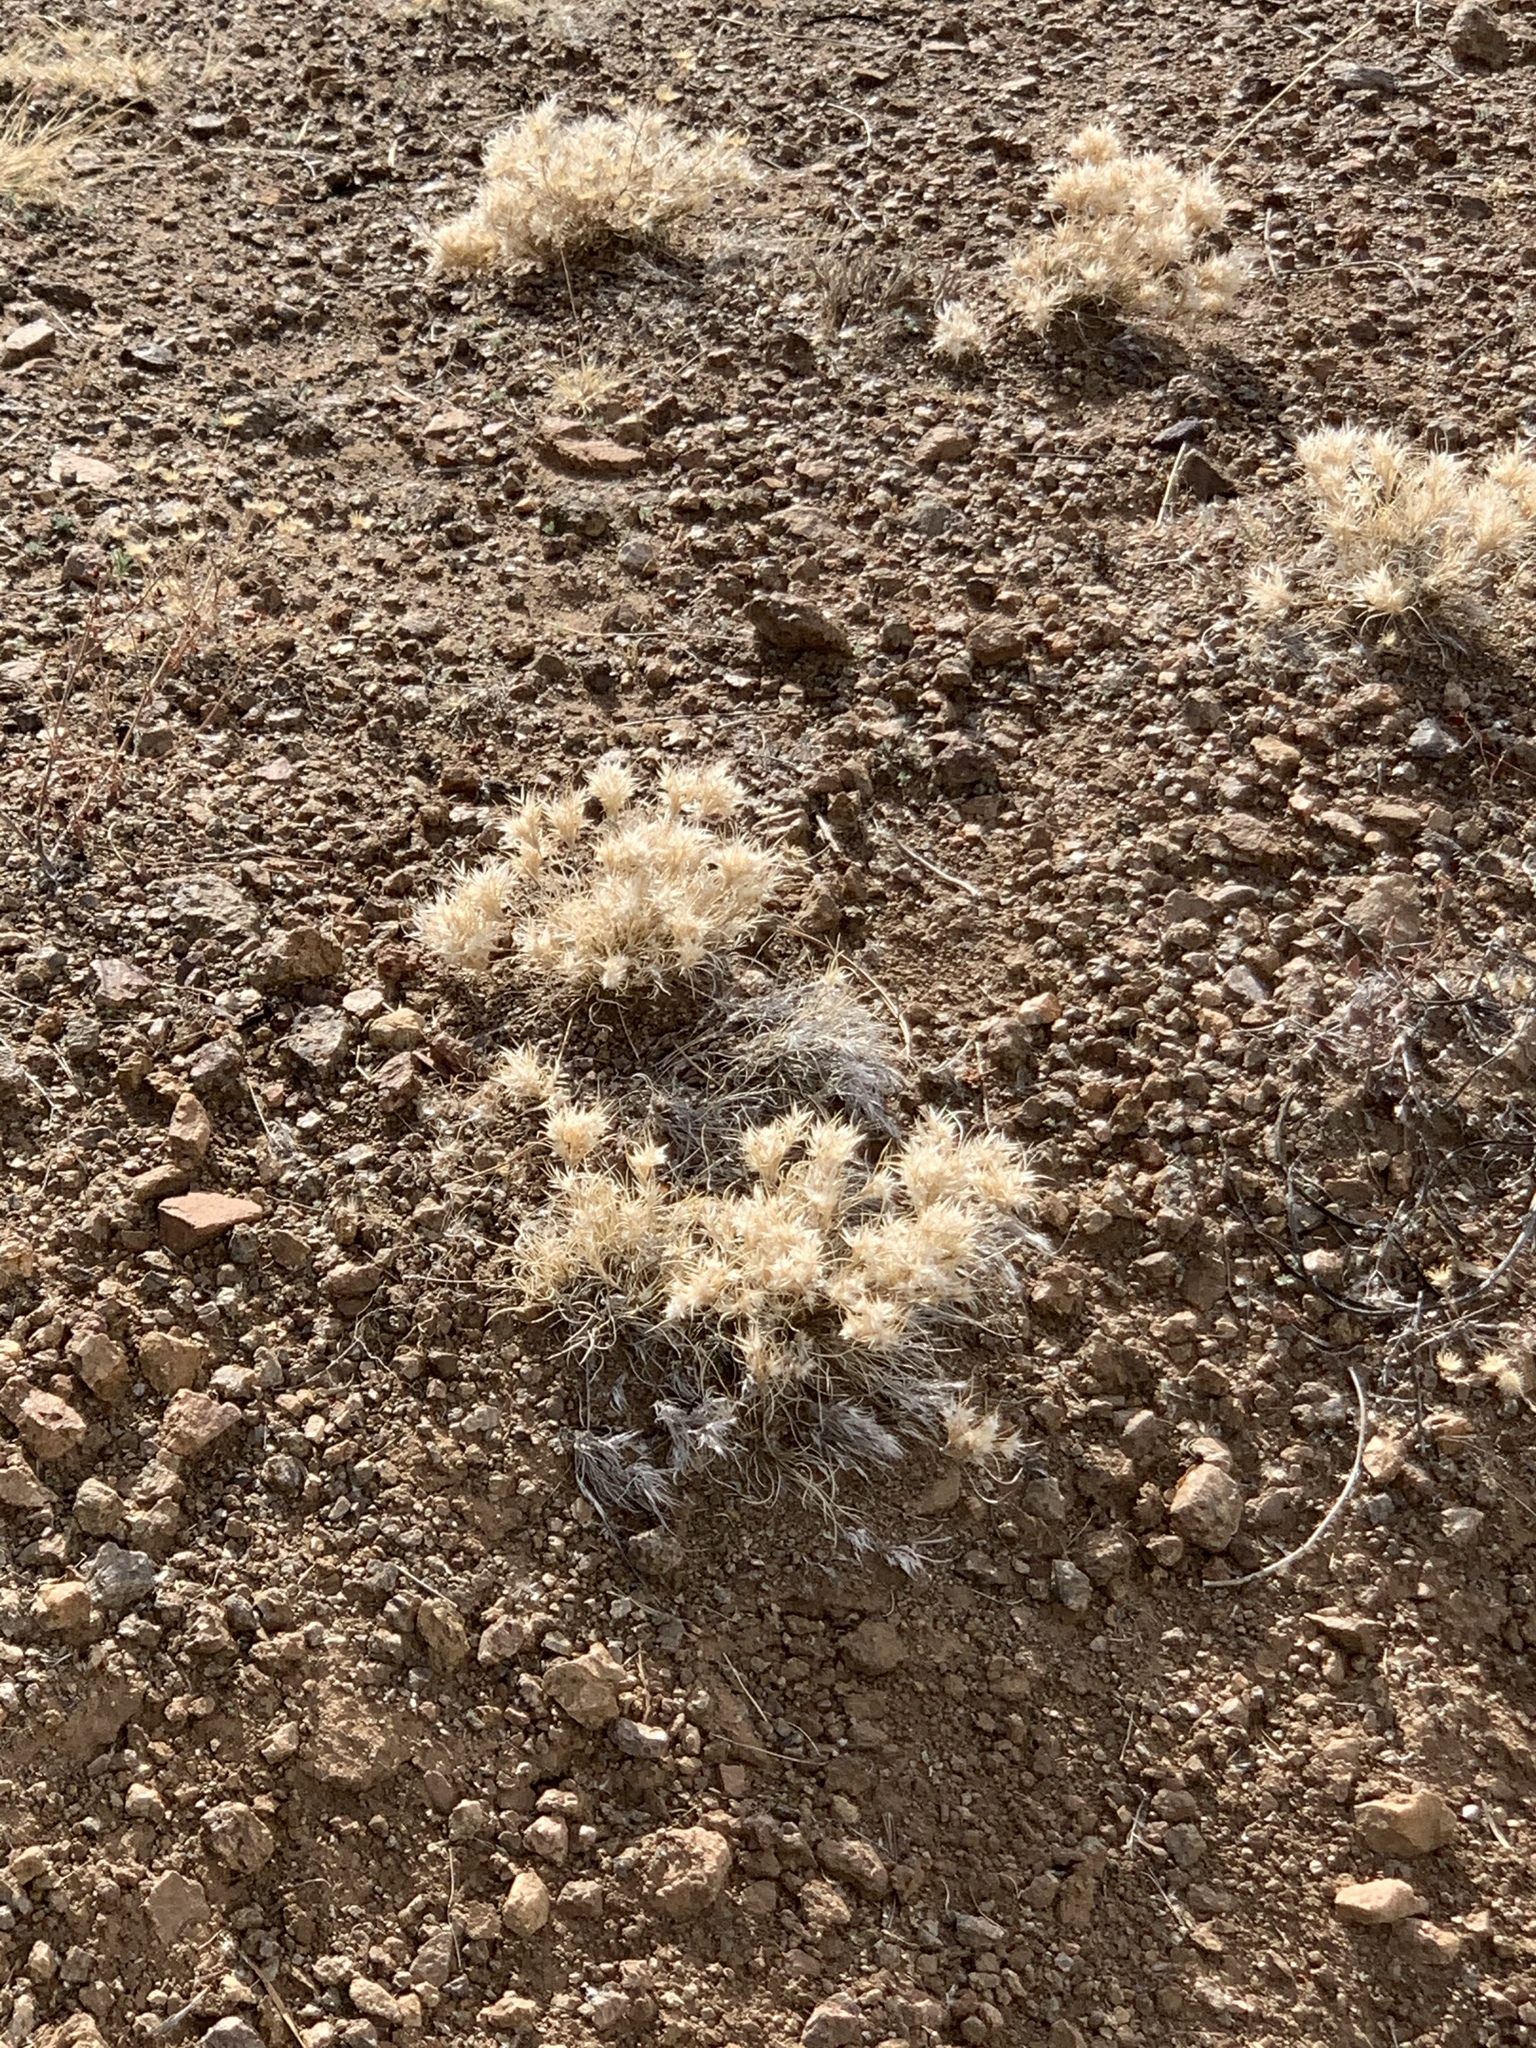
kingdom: Plantae
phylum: Tracheophyta
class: Liliopsida
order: Poales
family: Poaceae
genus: Dasyochloa
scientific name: Dasyochloa pulchella
